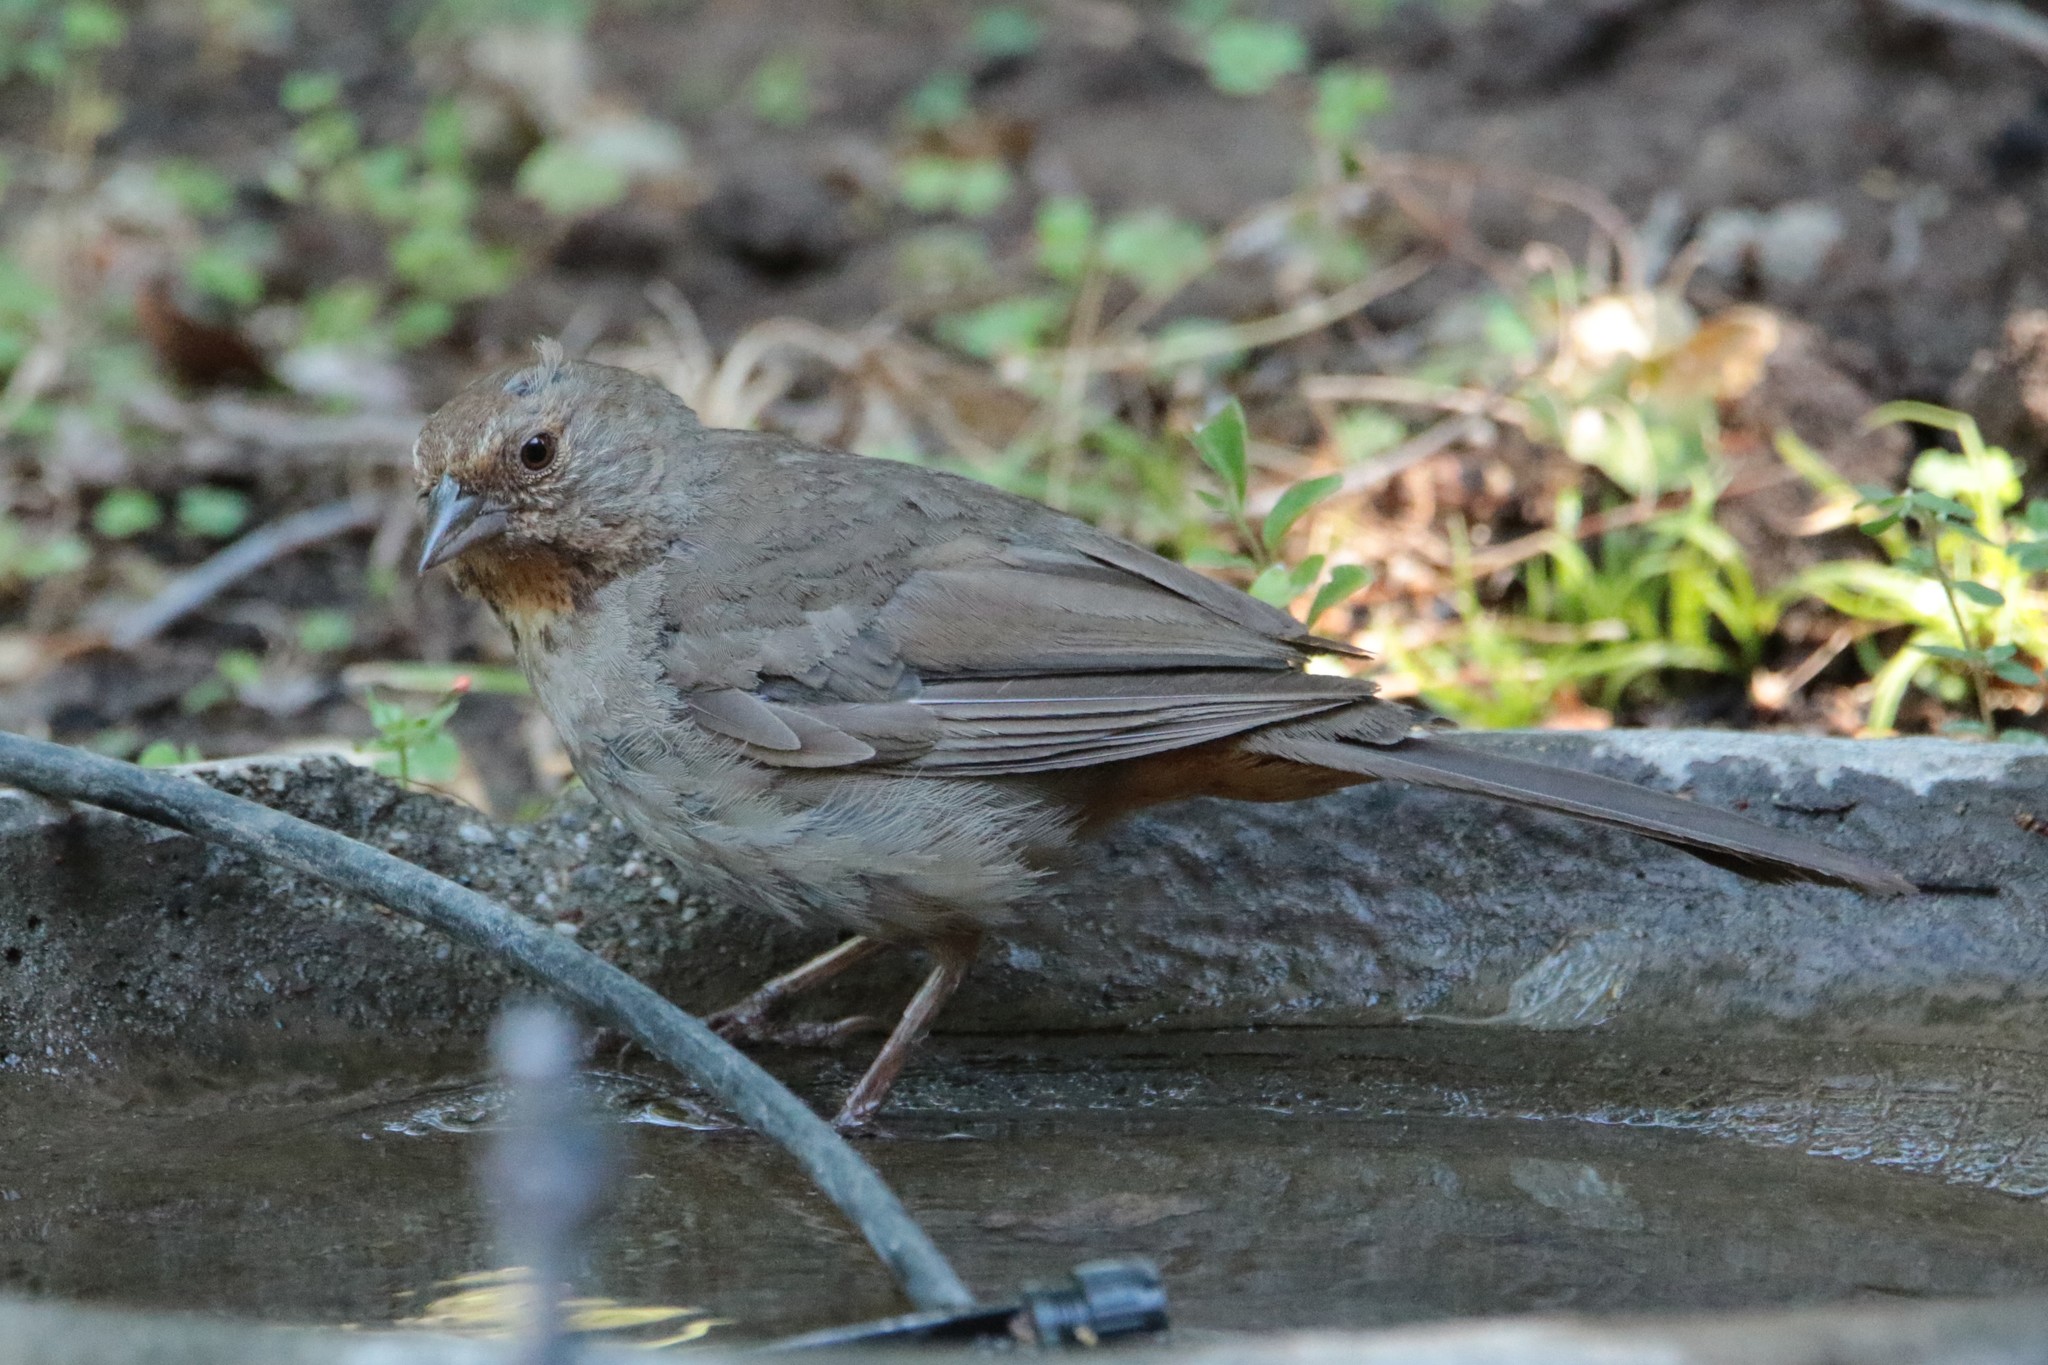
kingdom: Animalia
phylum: Chordata
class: Aves
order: Passeriformes
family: Passerellidae
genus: Melozone
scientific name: Melozone crissalis
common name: California towhee
